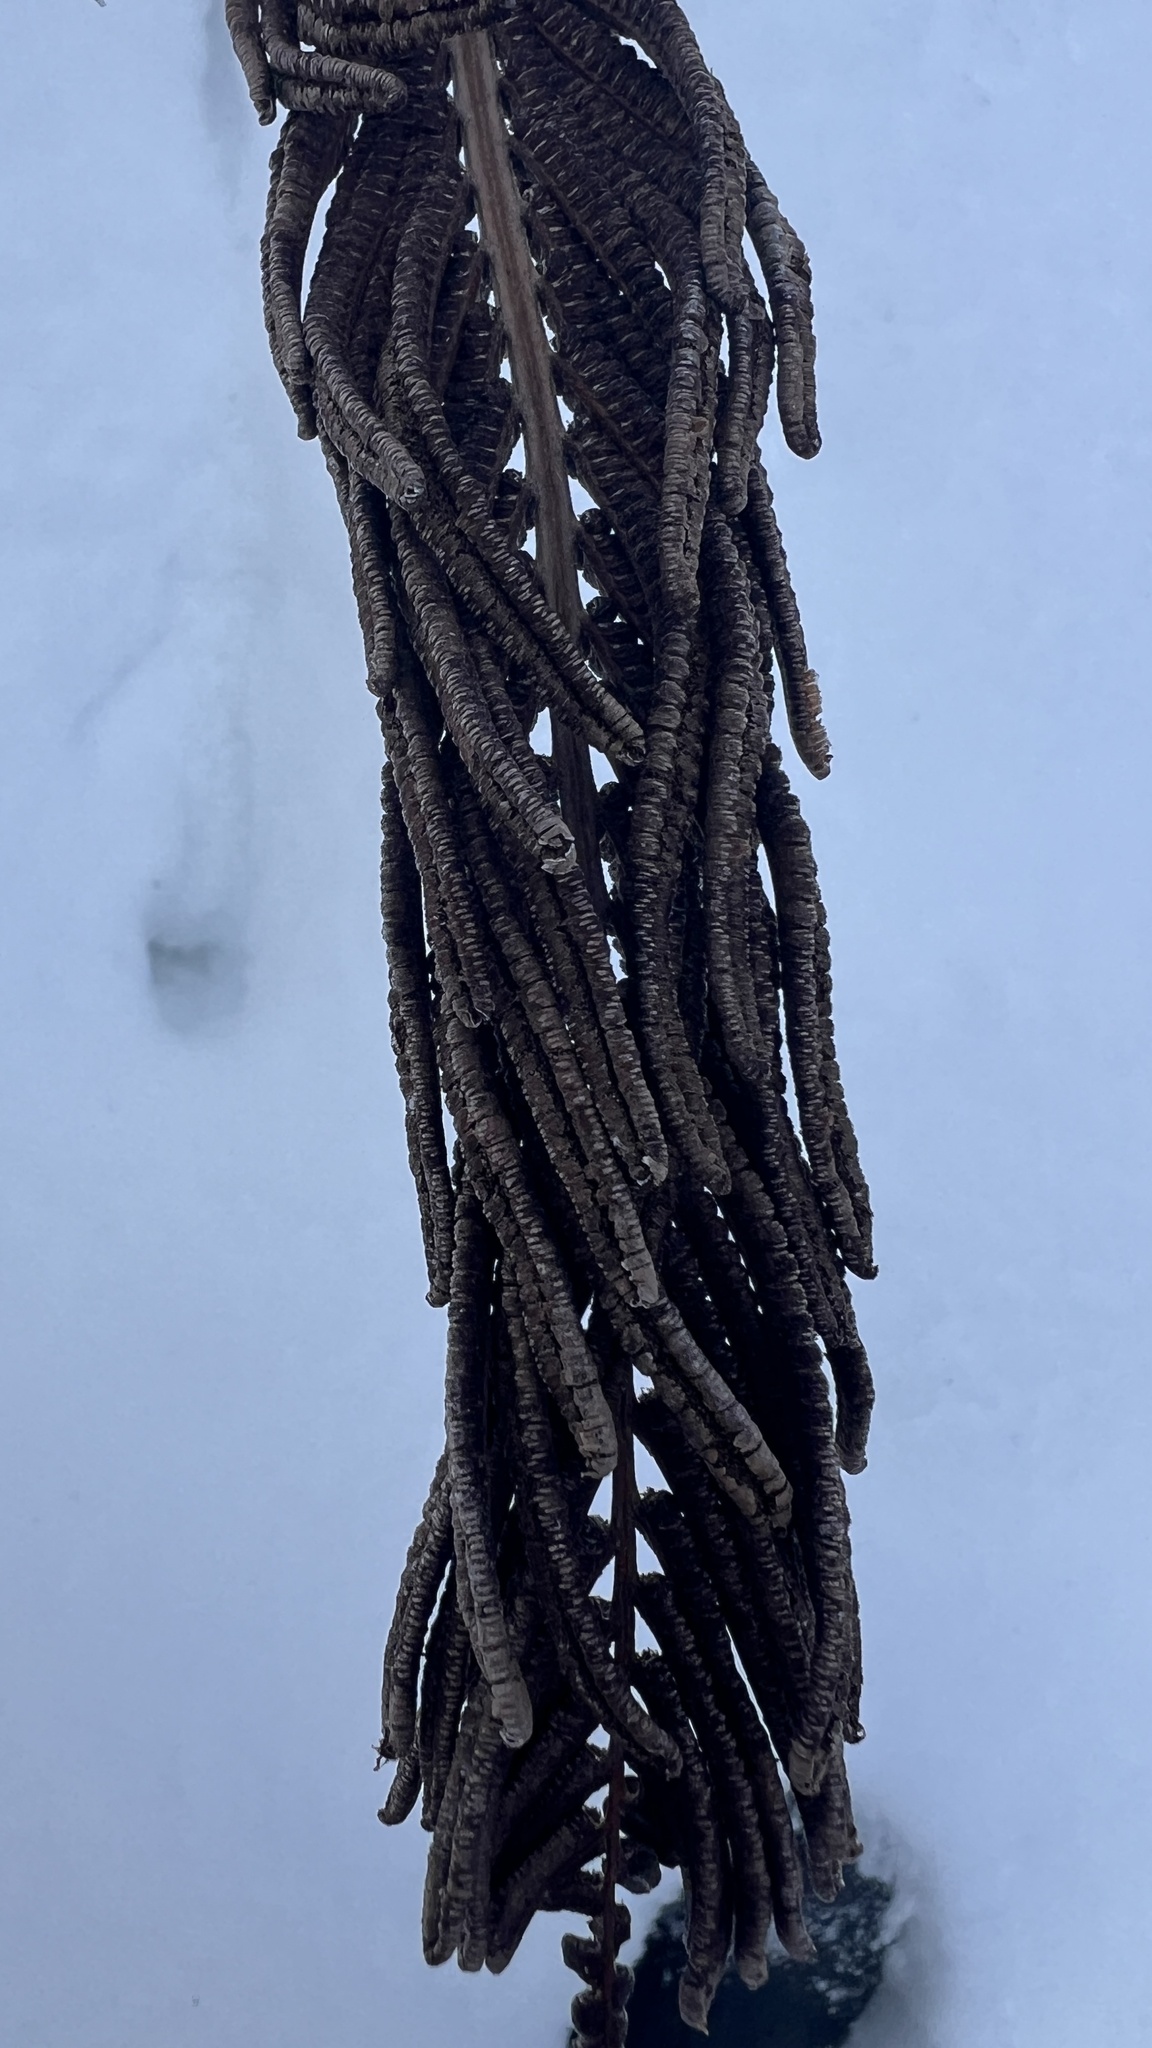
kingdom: Plantae
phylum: Tracheophyta
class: Polypodiopsida
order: Polypodiales
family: Onocleaceae
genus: Matteuccia
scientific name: Matteuccia struthiopteris
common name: Ostrich fern
